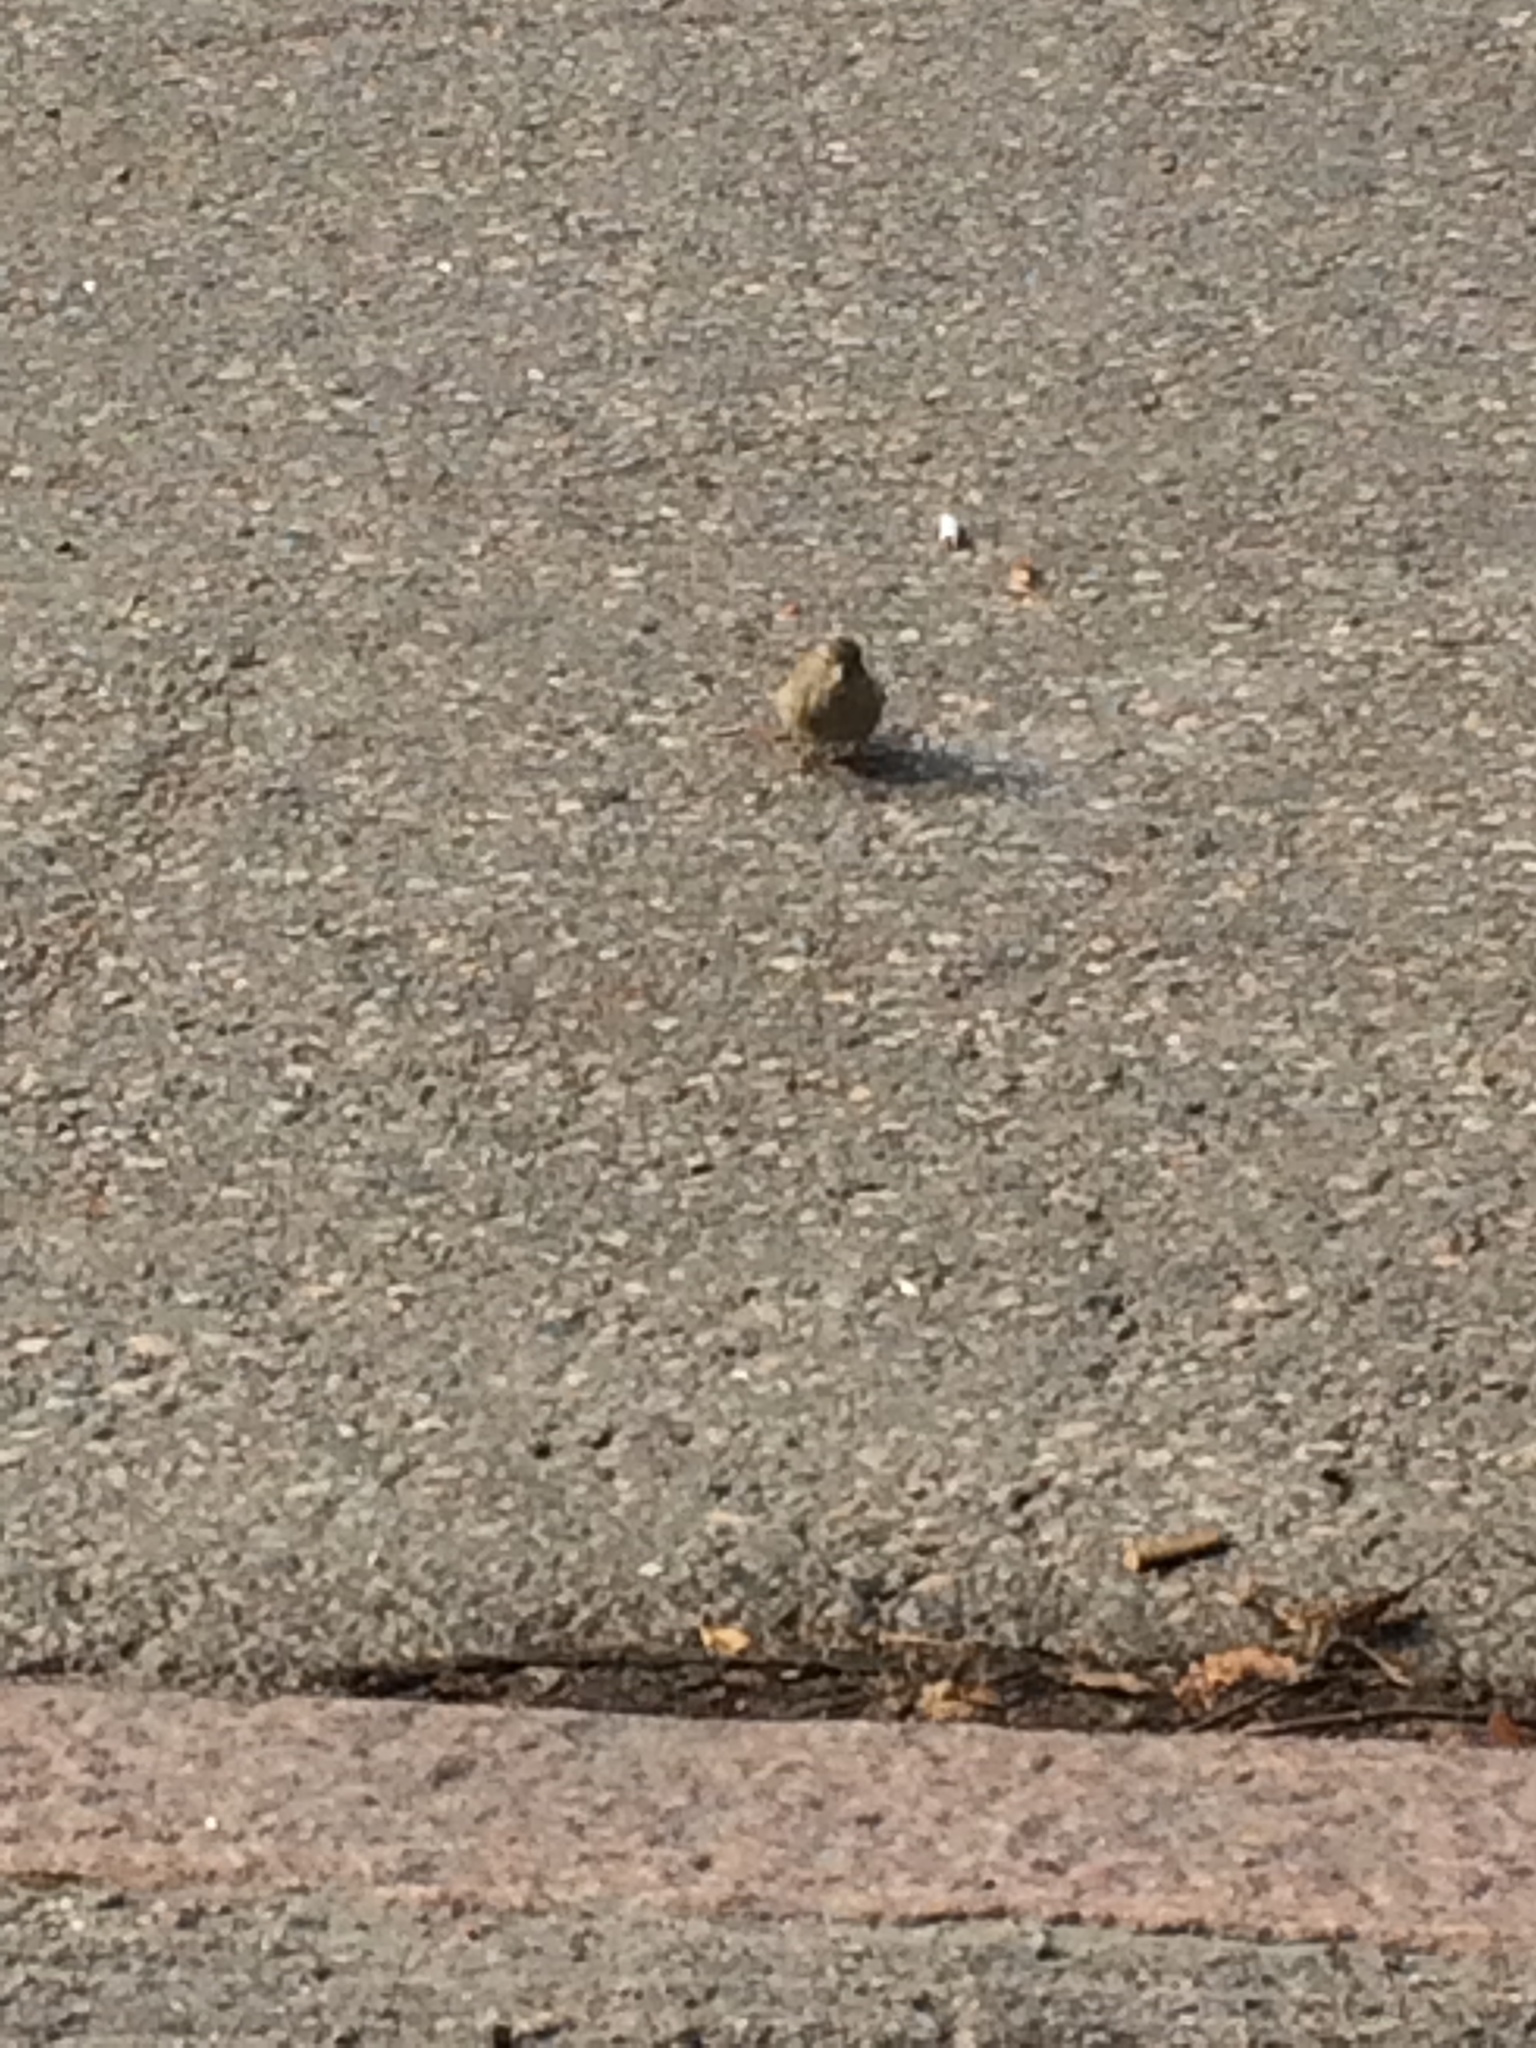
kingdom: Animalia
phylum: Chordata
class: Aves
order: Passeriformes
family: Passeridae
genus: Passer
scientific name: Passer domesticus
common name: House sparrow
